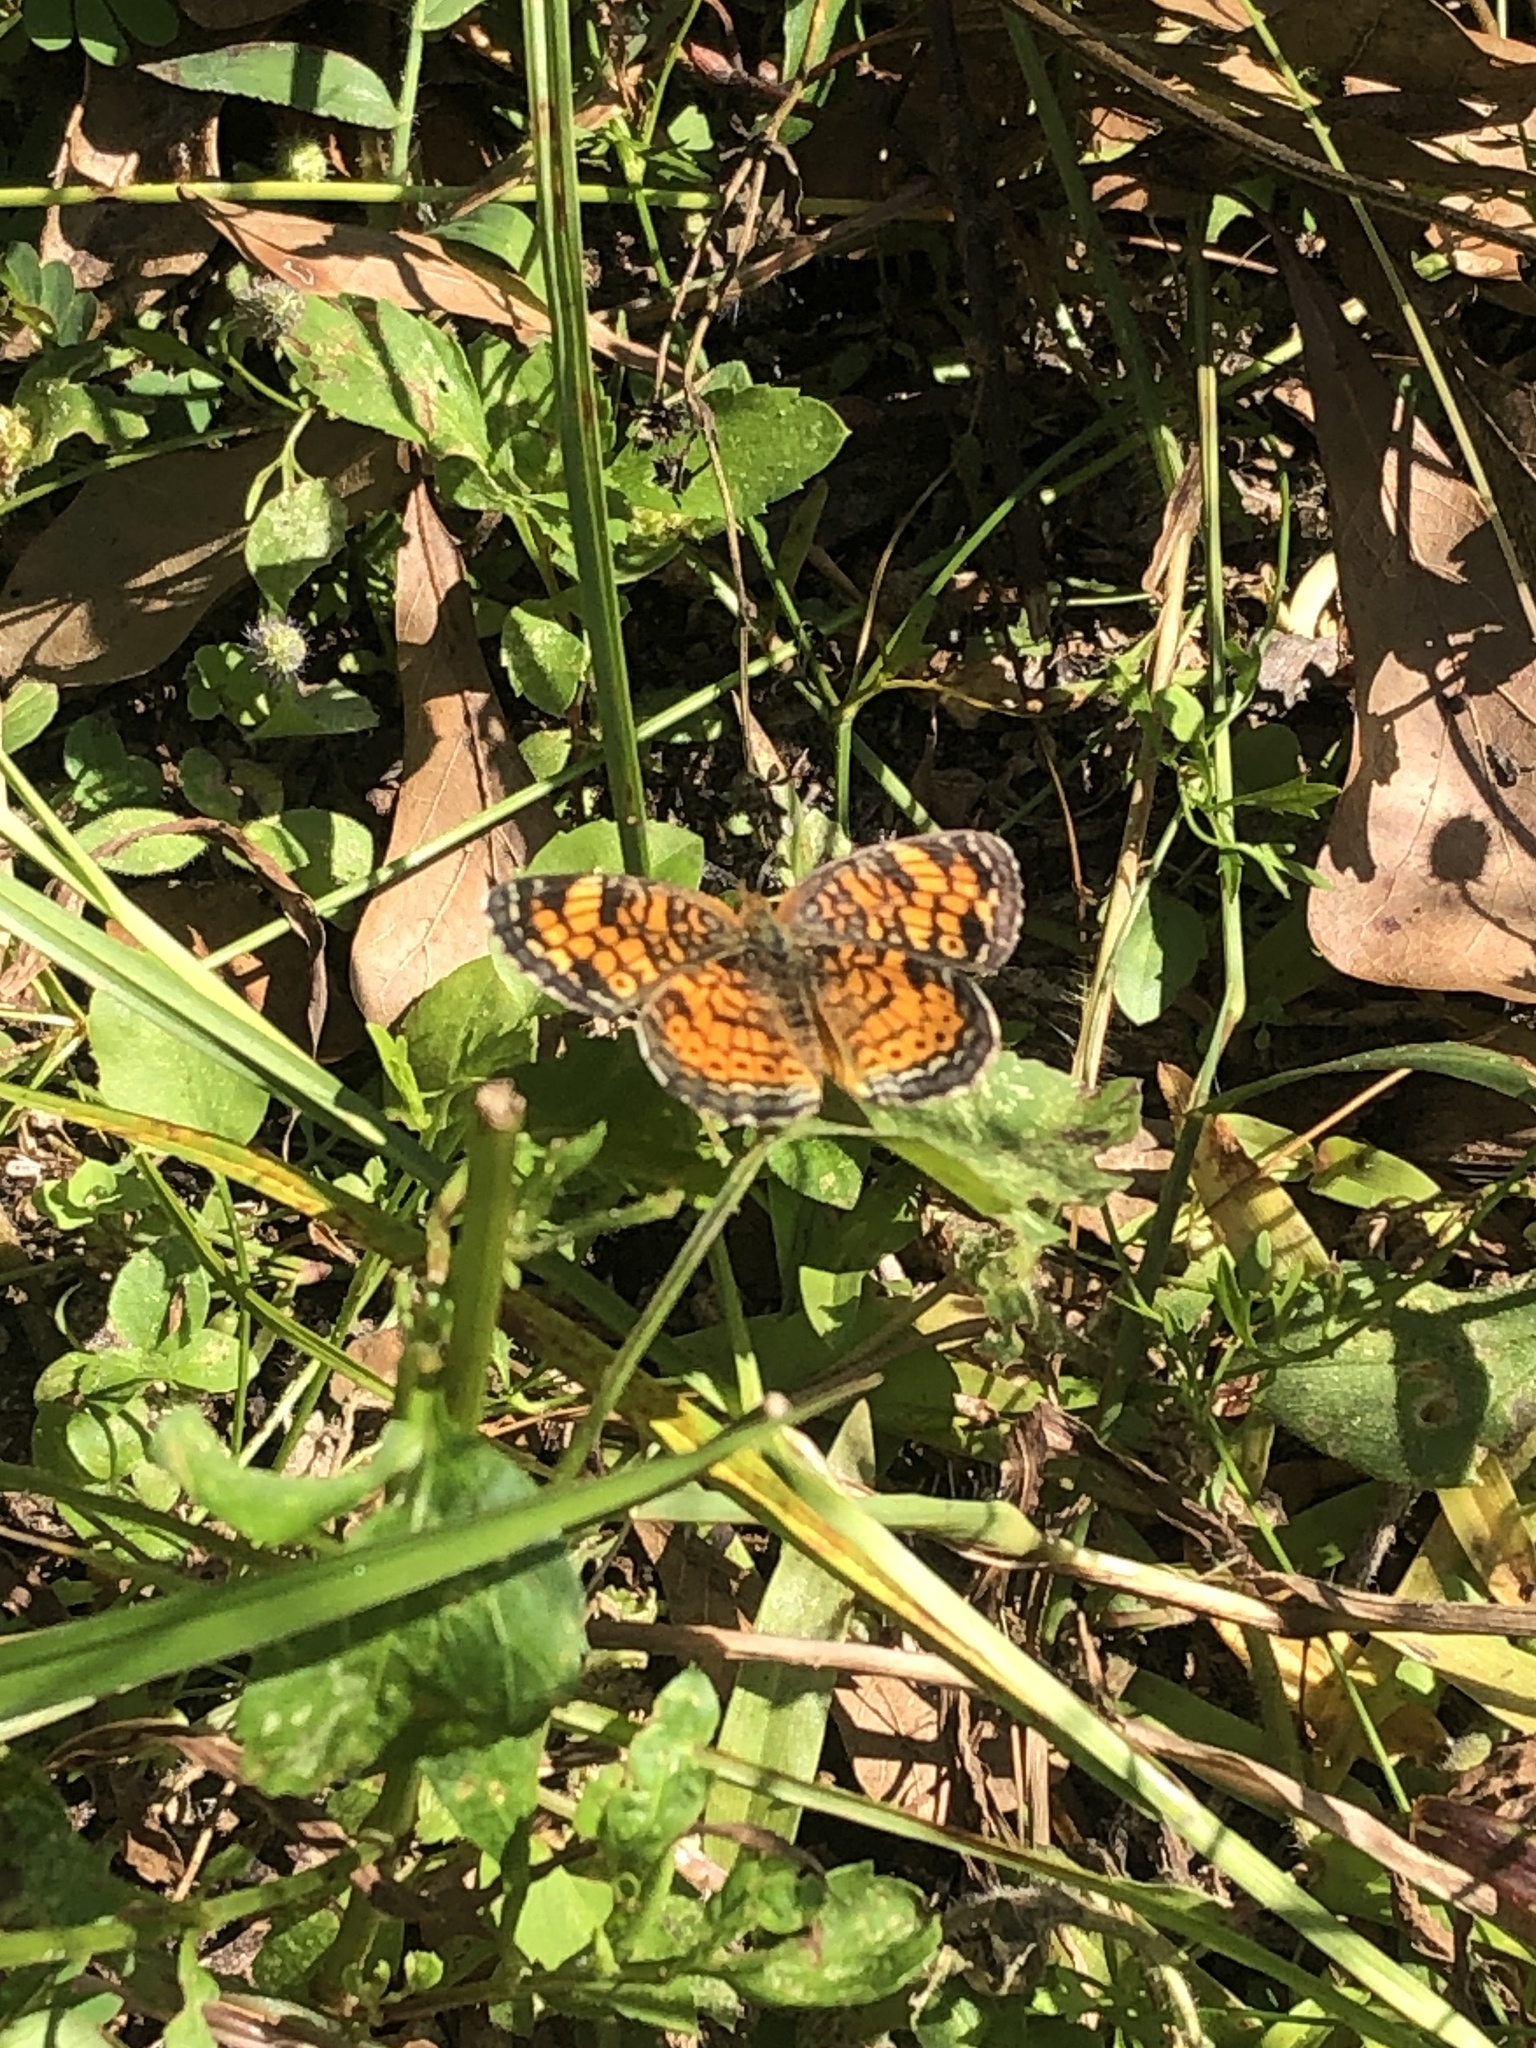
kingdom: Animalia
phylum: Arthropoda
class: Insecta
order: Lepidoptera
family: Nymphalidae
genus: Phyciodes
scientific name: Phyciodes tharos
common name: Pearl crescent
